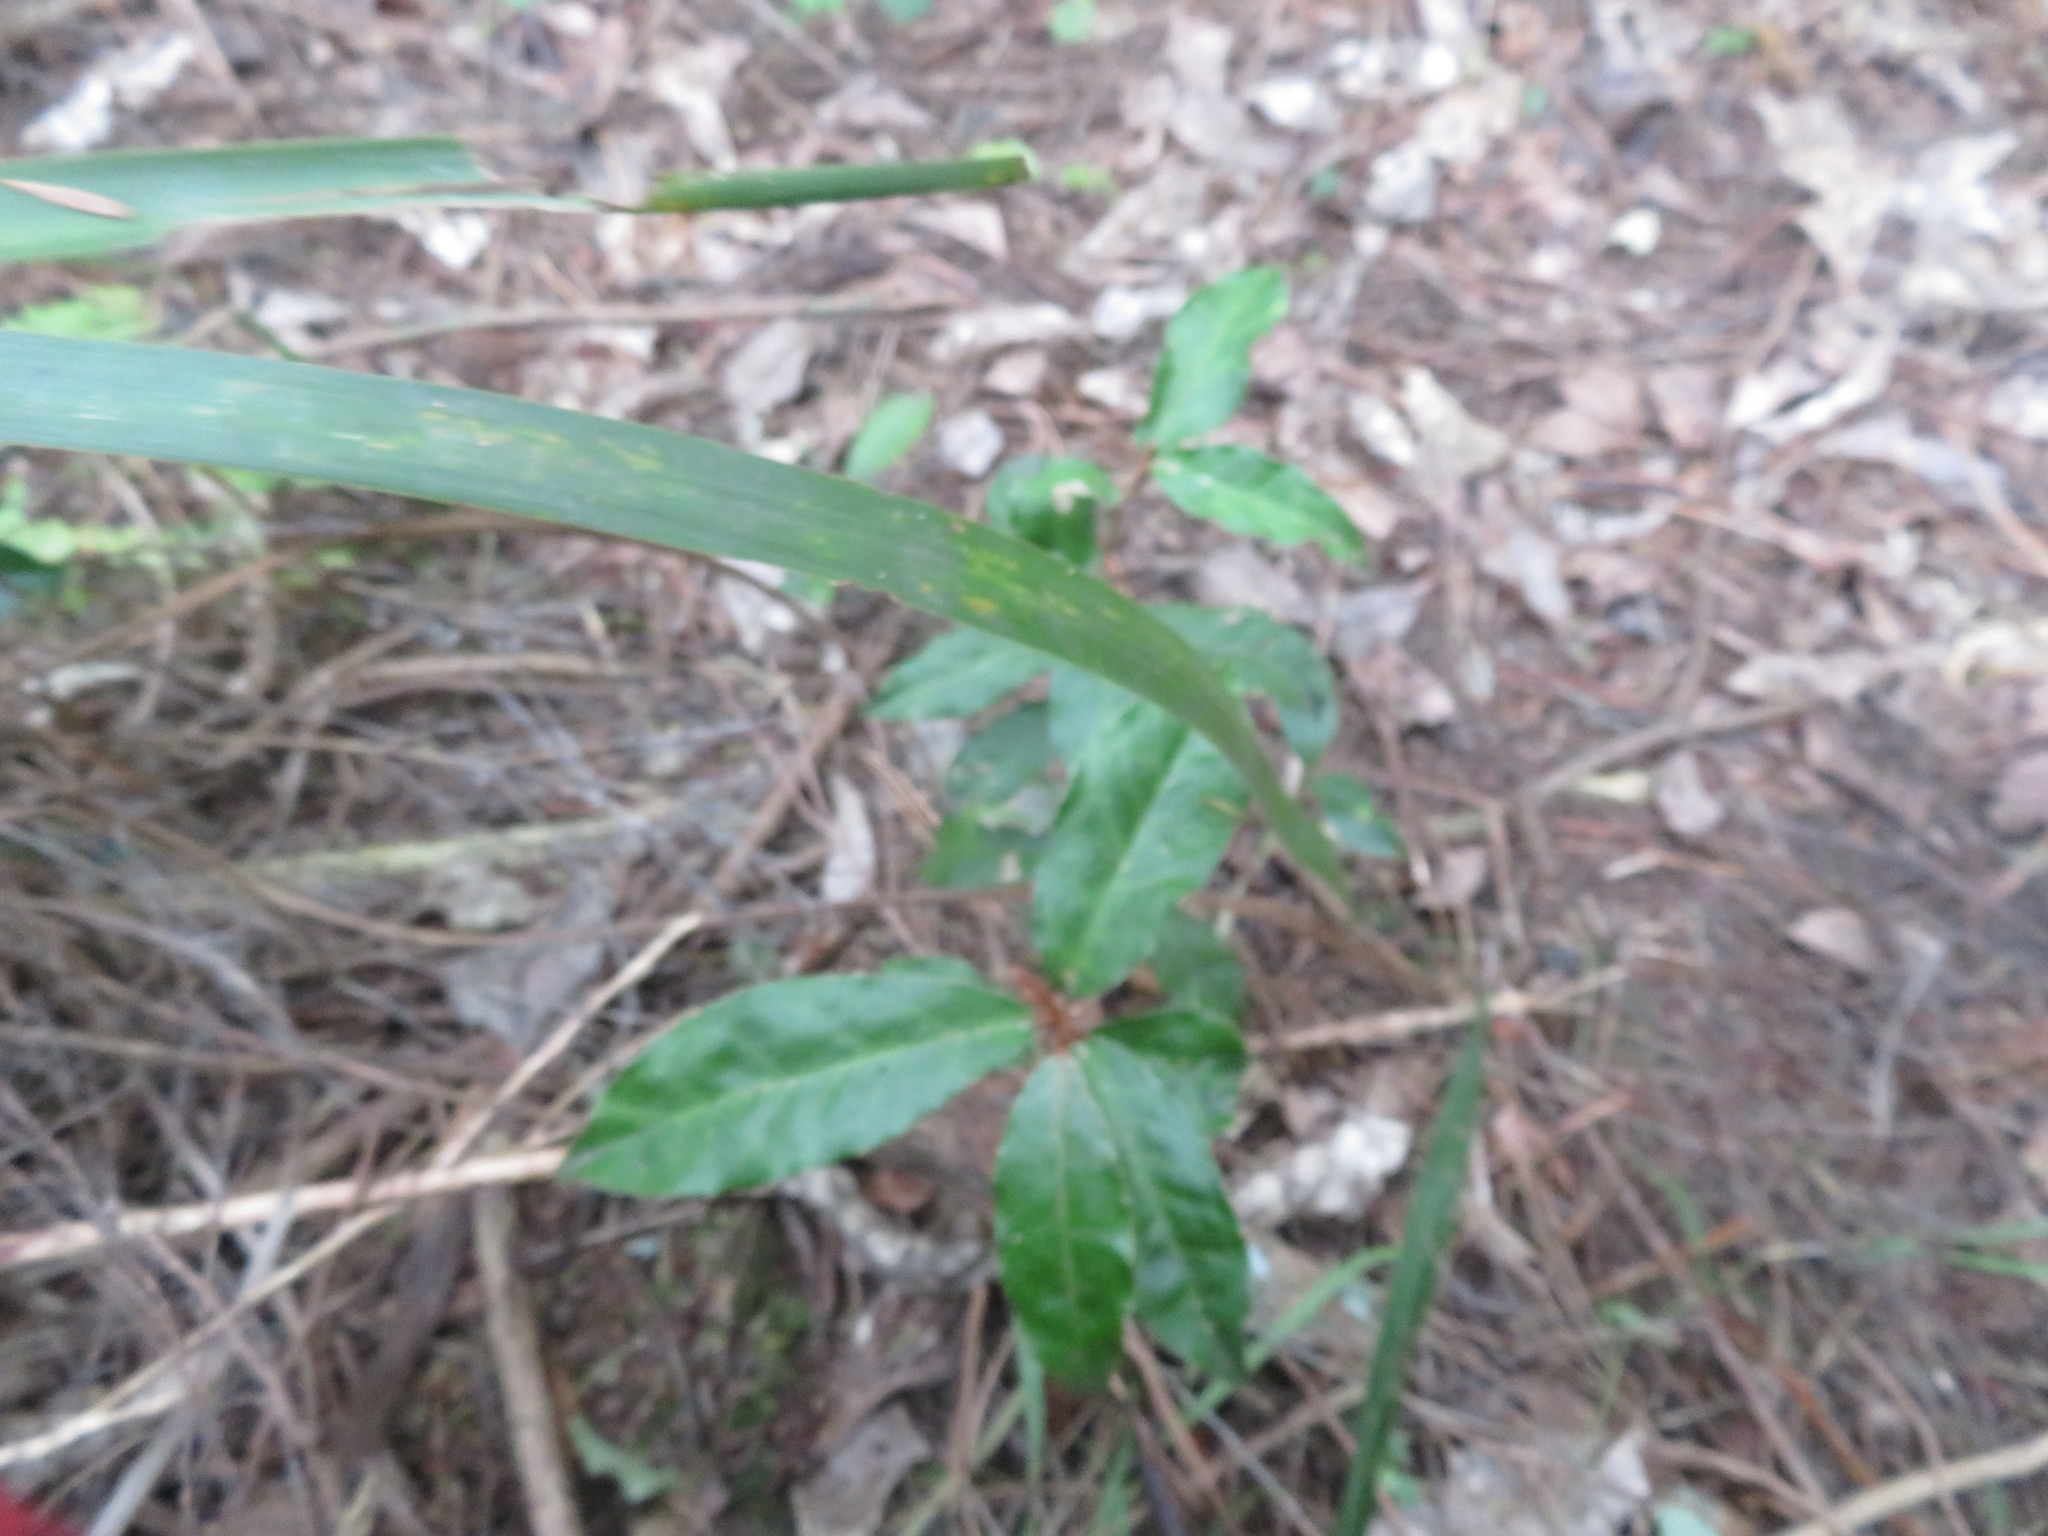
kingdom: Plantae
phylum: Tracheophyta
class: Magnoliopsida
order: Rosales
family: Elaeagnaceae
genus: Elaeagnus
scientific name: Elaeagnus reflexa
